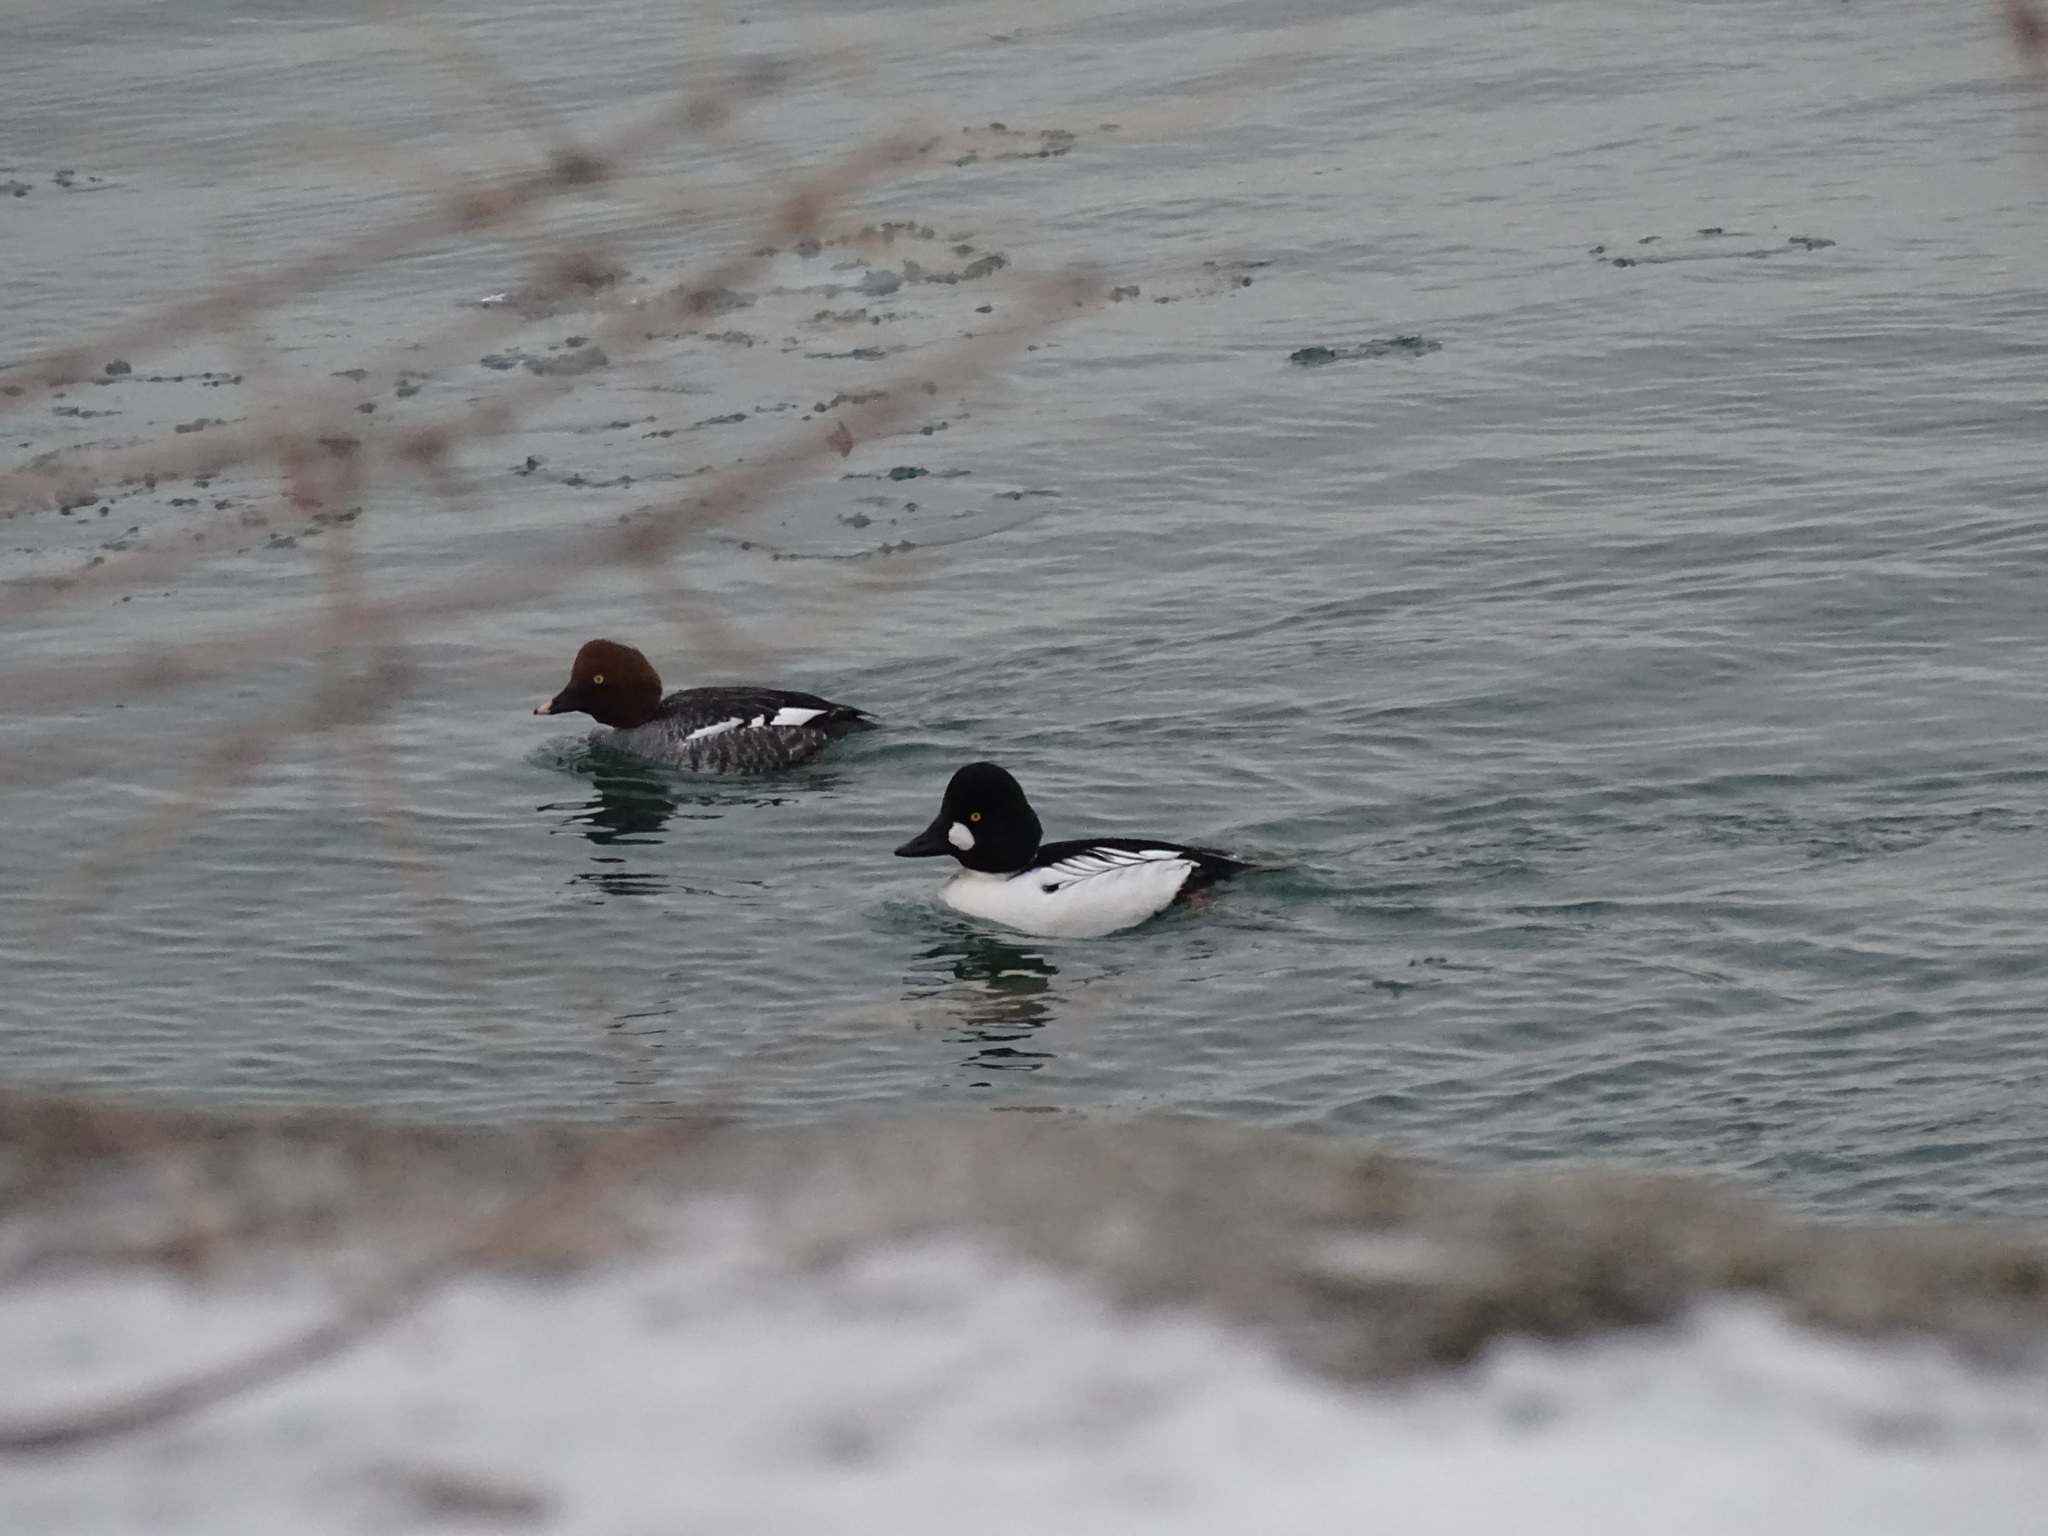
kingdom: Animalia
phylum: Chordata
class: Aves
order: Anseriformes
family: Anatidae
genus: Bucephala
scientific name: Bucephala clangula
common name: Common goldeneye
